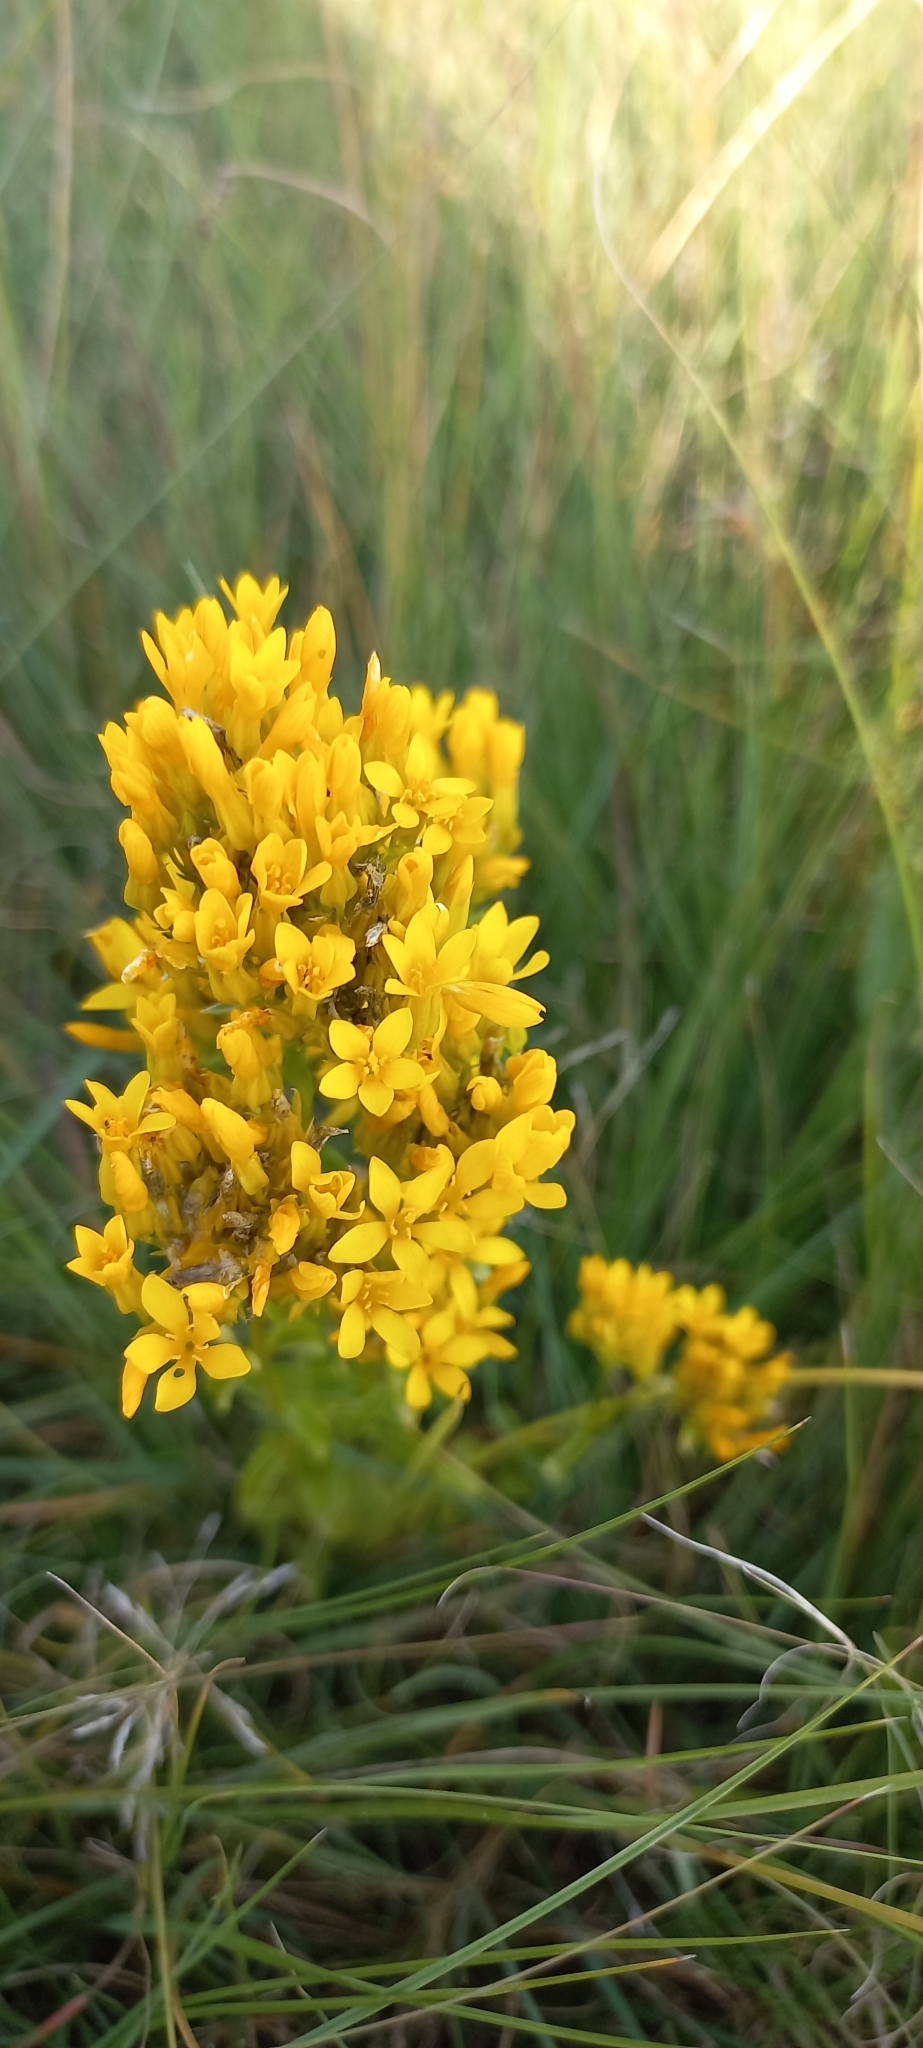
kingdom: Plantae
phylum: Tracheophyta
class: Magnoliopsida
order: Gentianales
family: Gentianaceae
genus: Sebaea
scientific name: Sebaea sedoides
